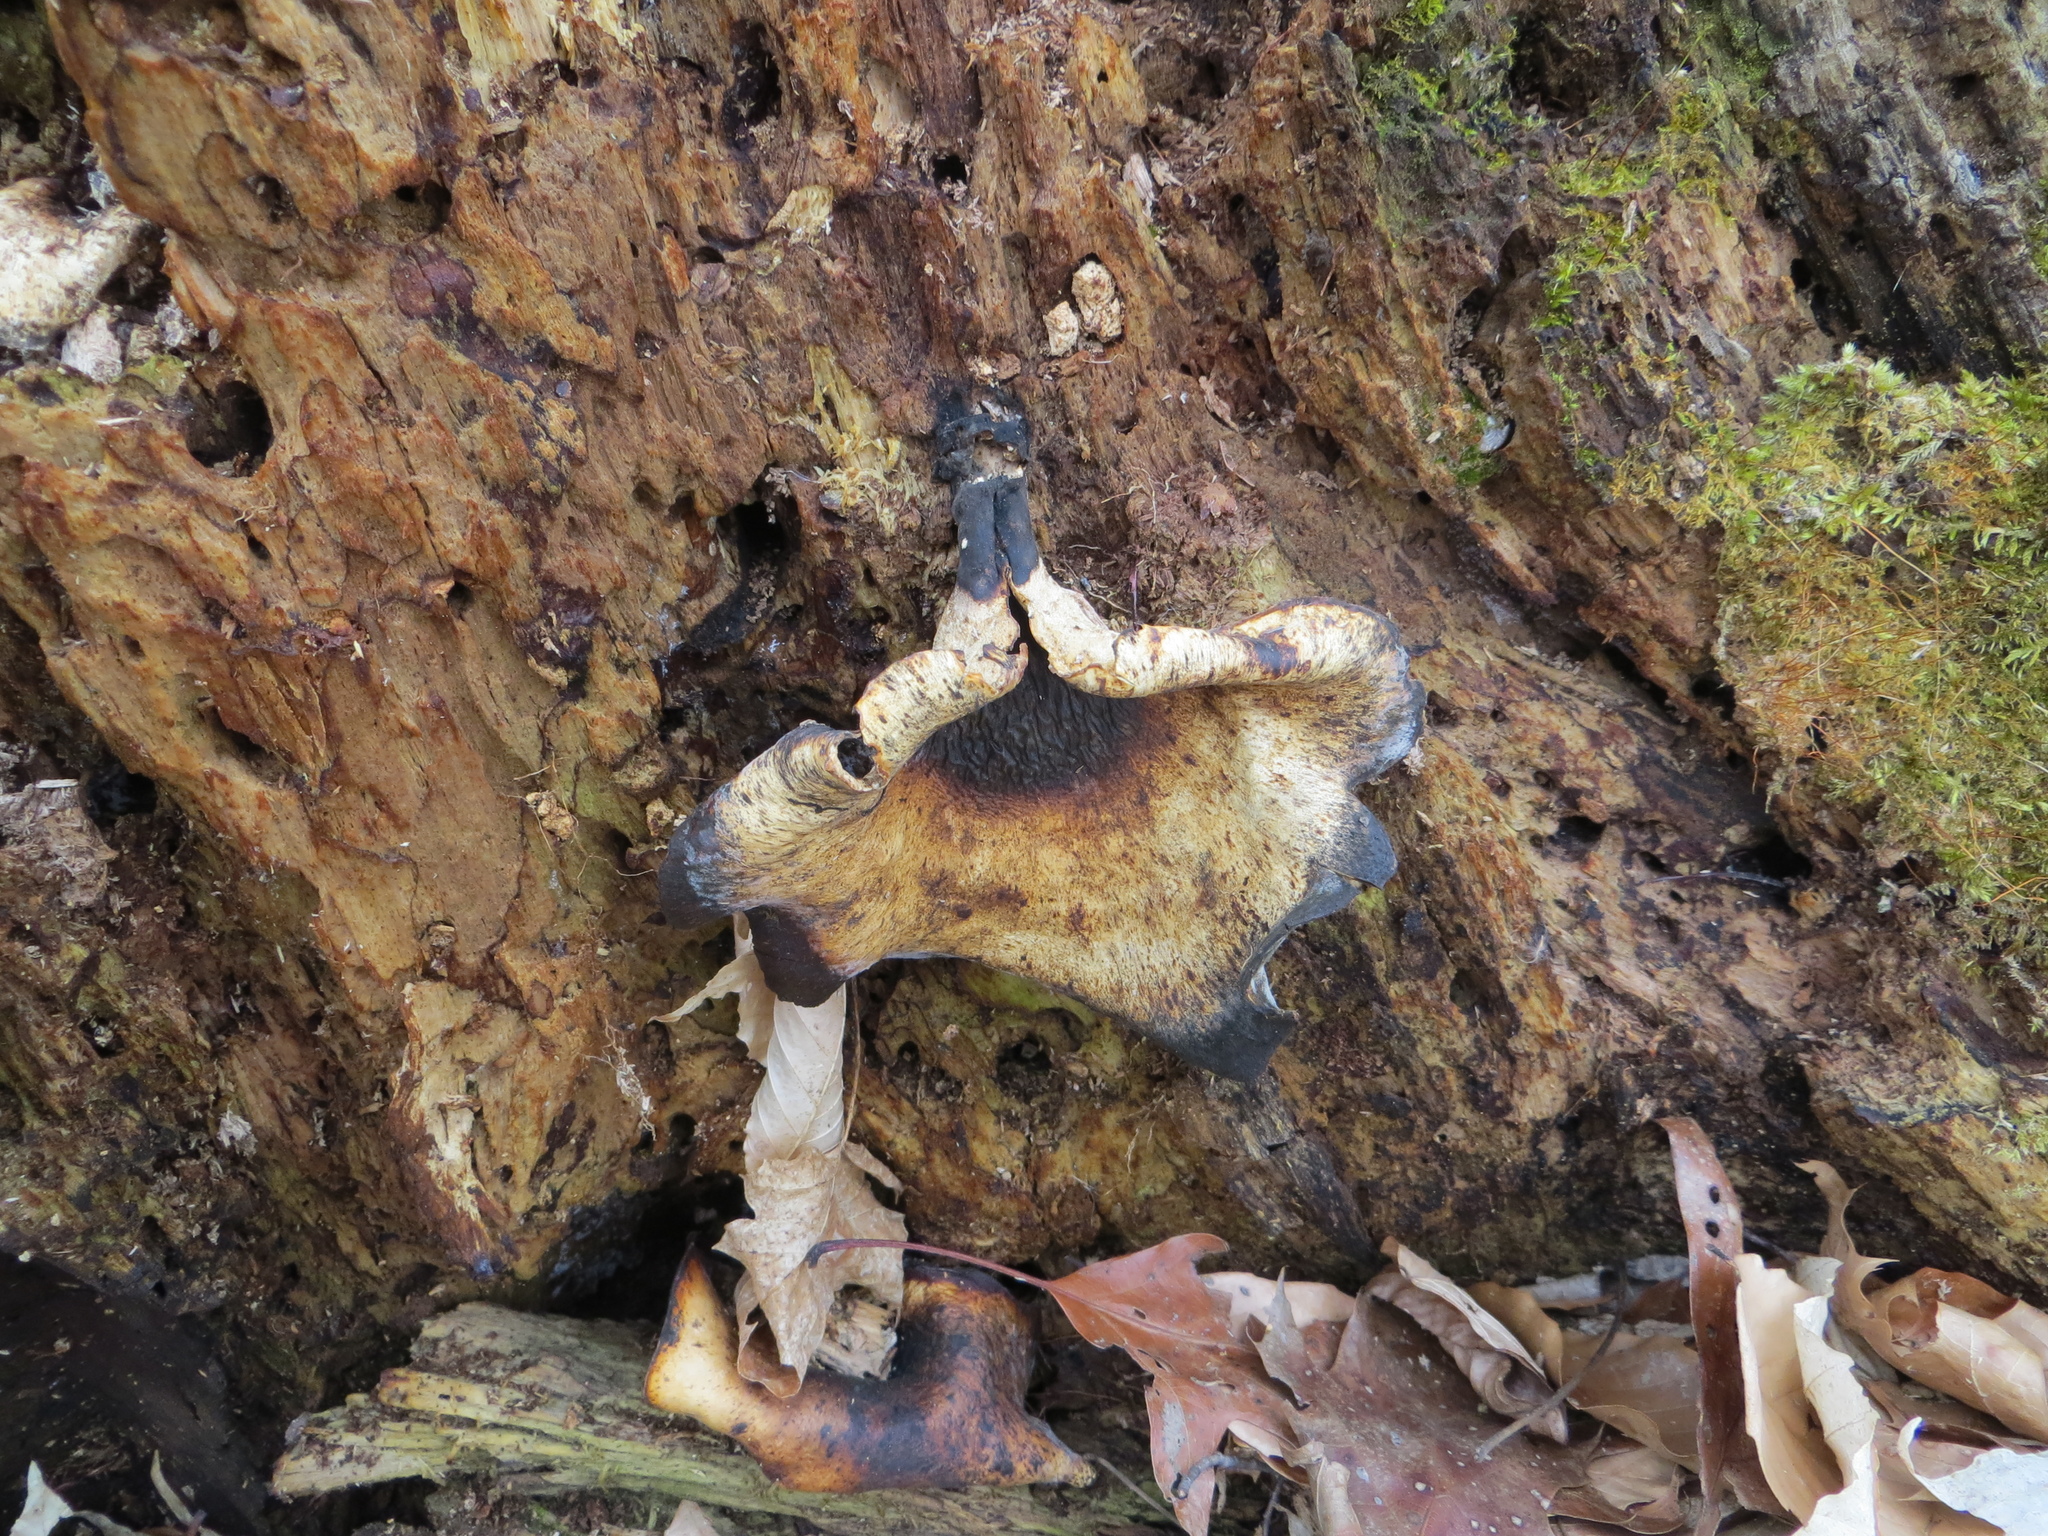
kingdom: Fungi
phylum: Basidiomycota
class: Agaricomycetes
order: Polyporales
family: Polyporaceae
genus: Picipes
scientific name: Picipes badius
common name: Bay polypore
